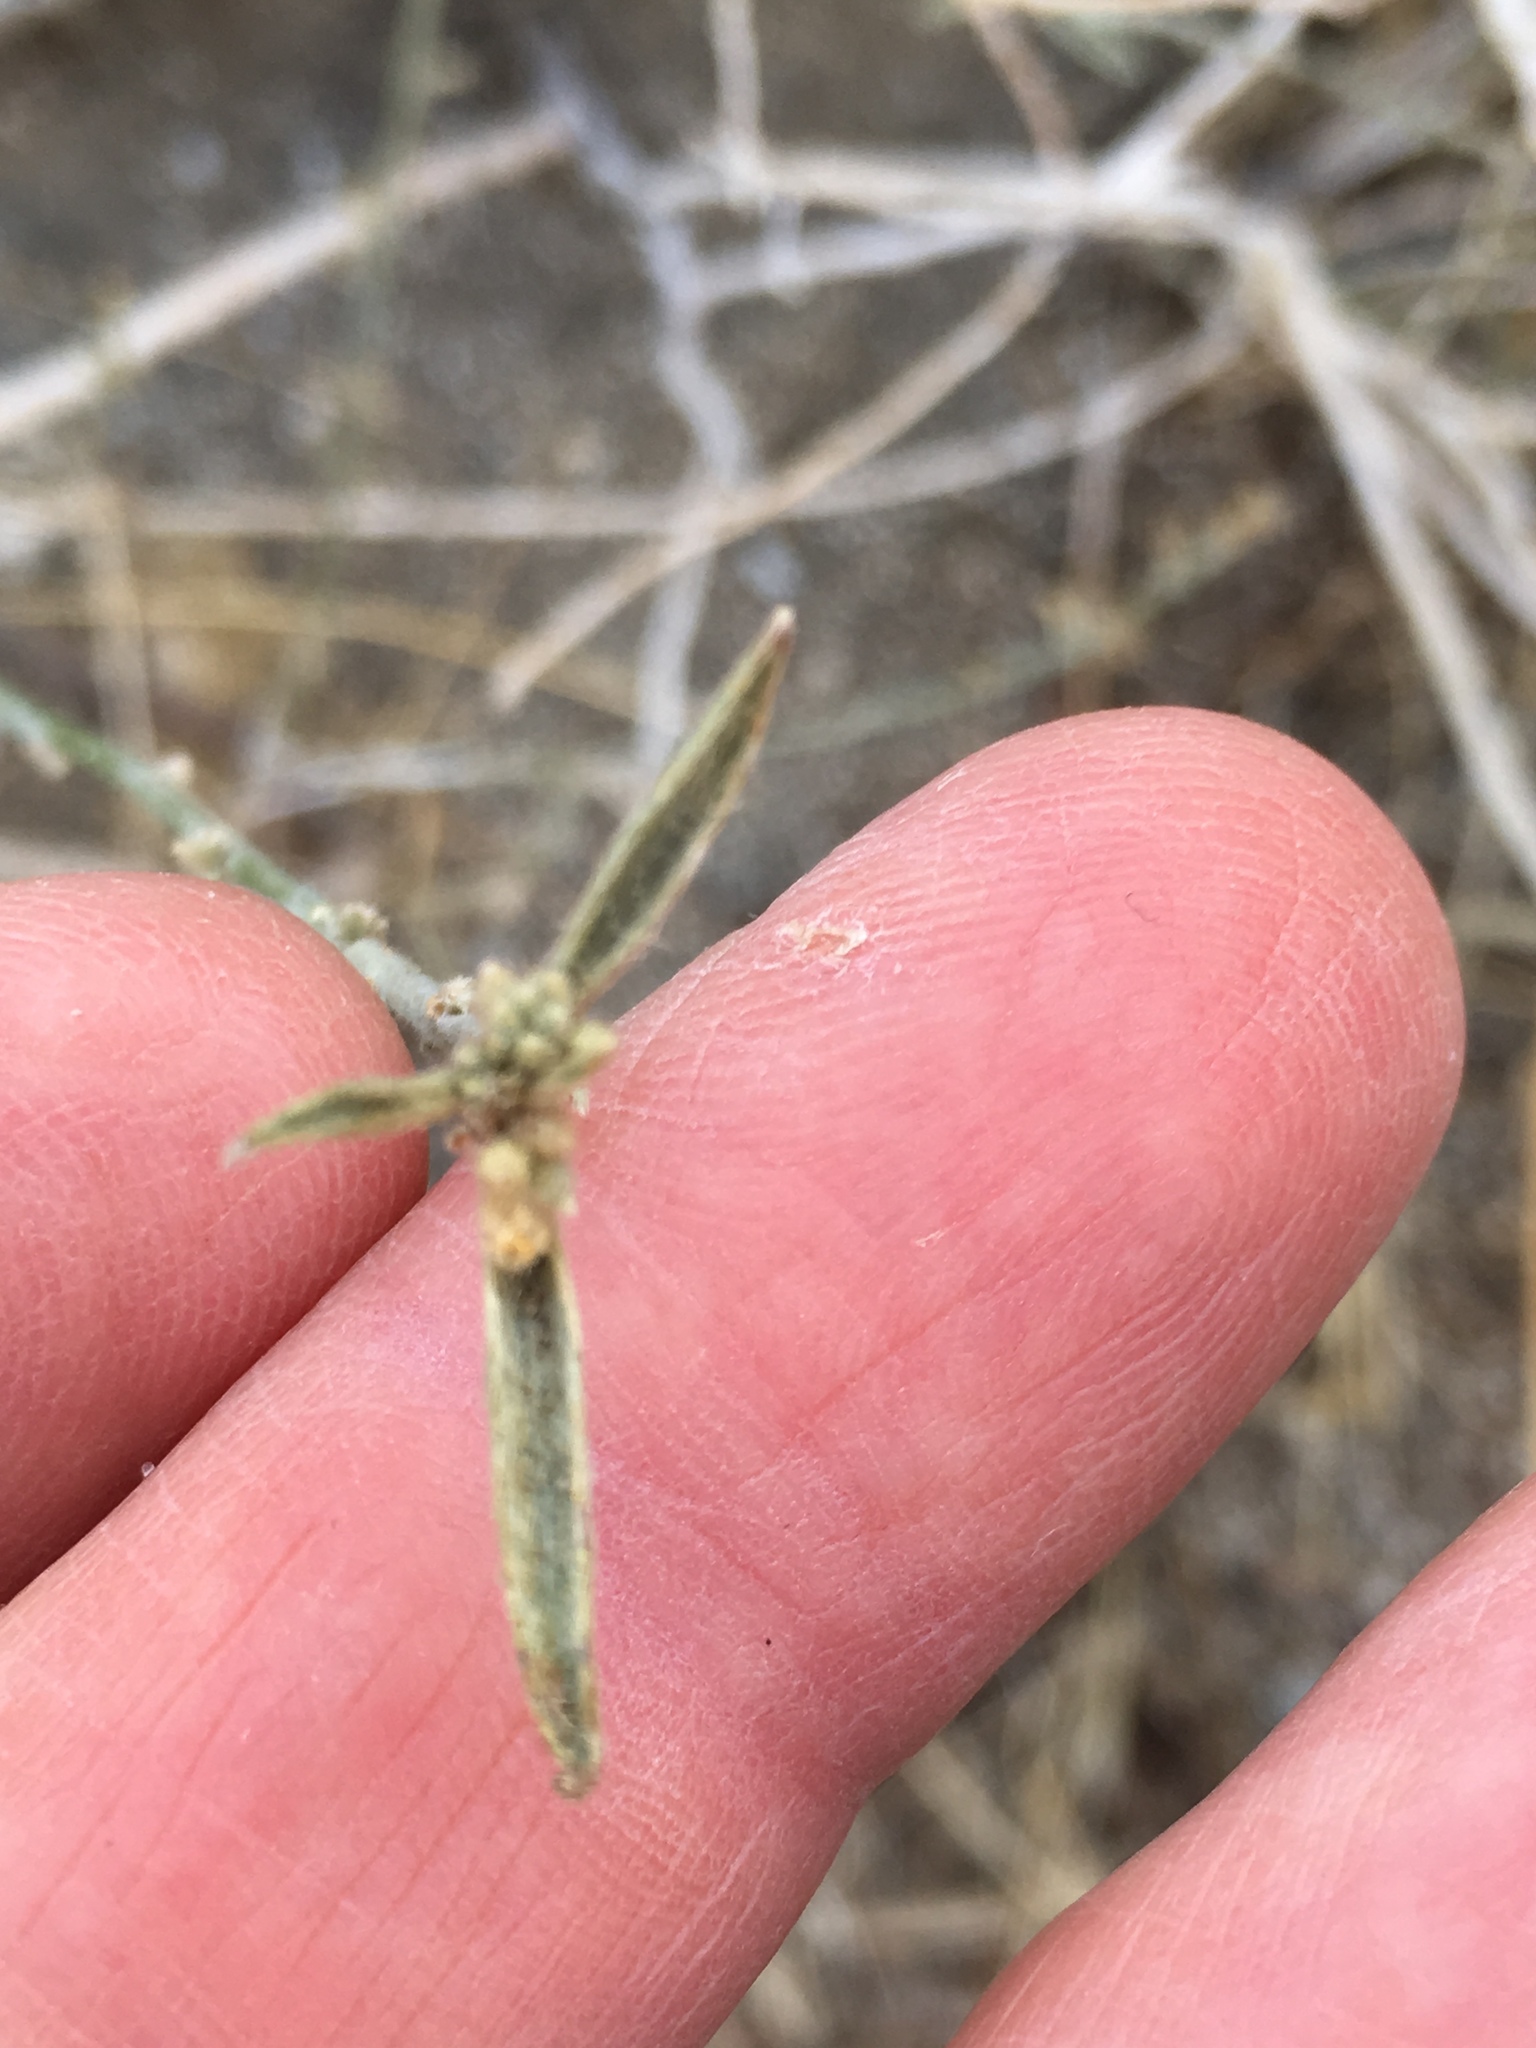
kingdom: Plantae
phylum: Tracheophyta
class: Magnoliopsida
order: Malpighiales
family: Euphorbiaceae
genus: Ditaxis
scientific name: Ditaxis lanceolata
